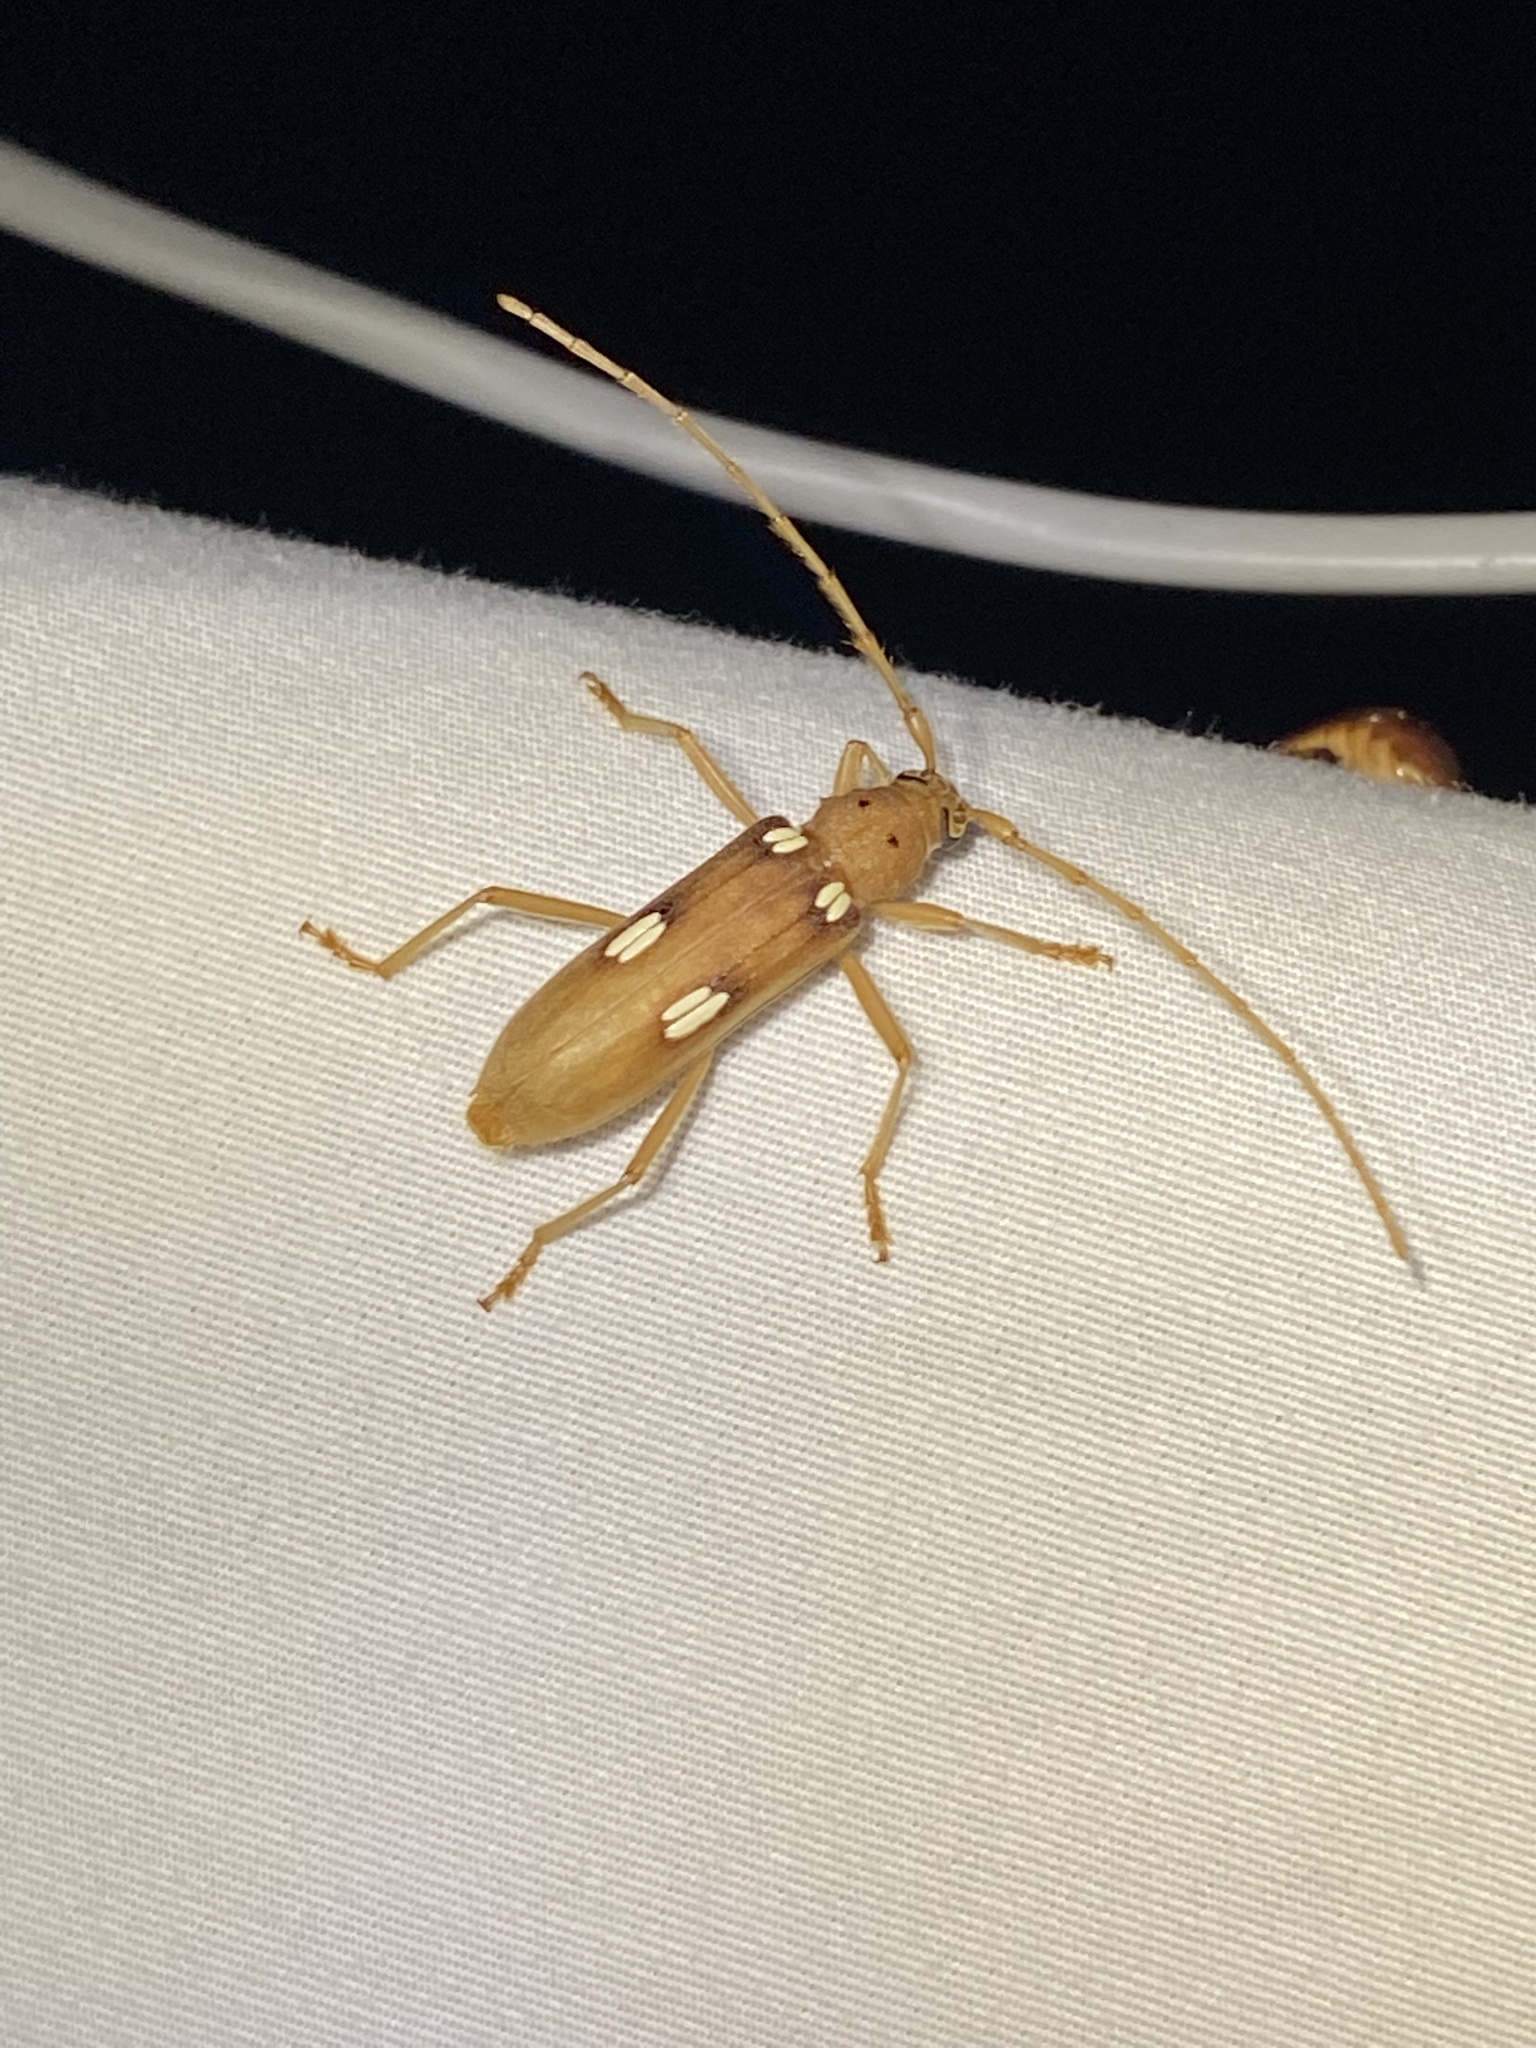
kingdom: Animalia
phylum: Arthropoda
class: Insecta
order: Coleoptera
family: Cerambycidae
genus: Eburia
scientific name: Eburia quadrigeminata
